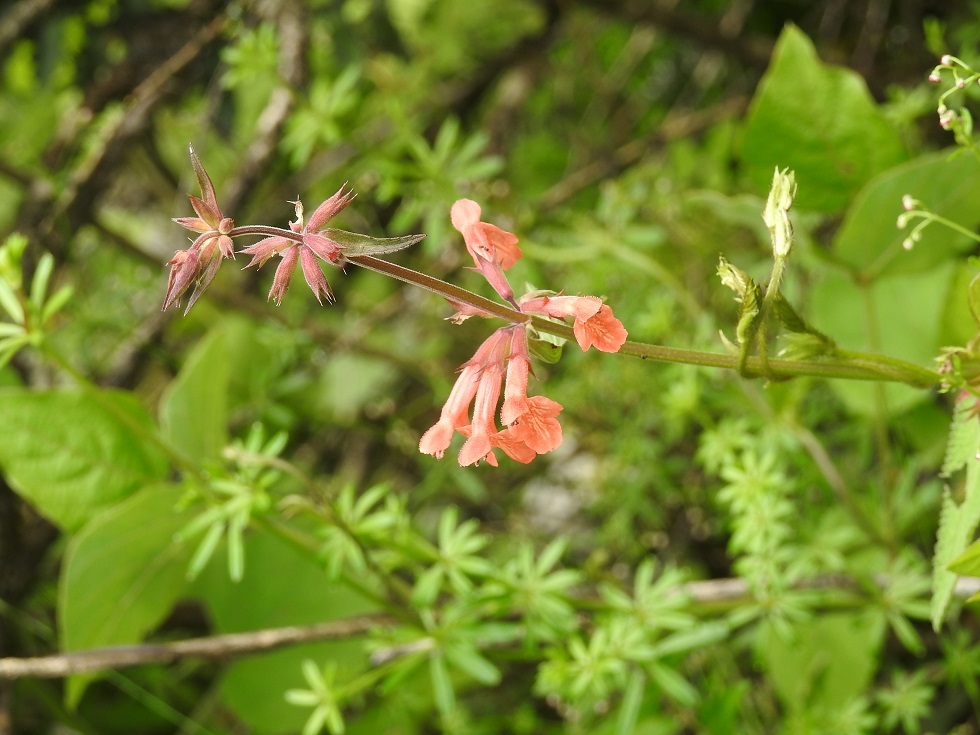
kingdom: Plantae
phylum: Tracheophyta
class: Magnoliopsida
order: Lamiales
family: Lamiaceae
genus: Stachys
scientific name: Stachys coccinea
